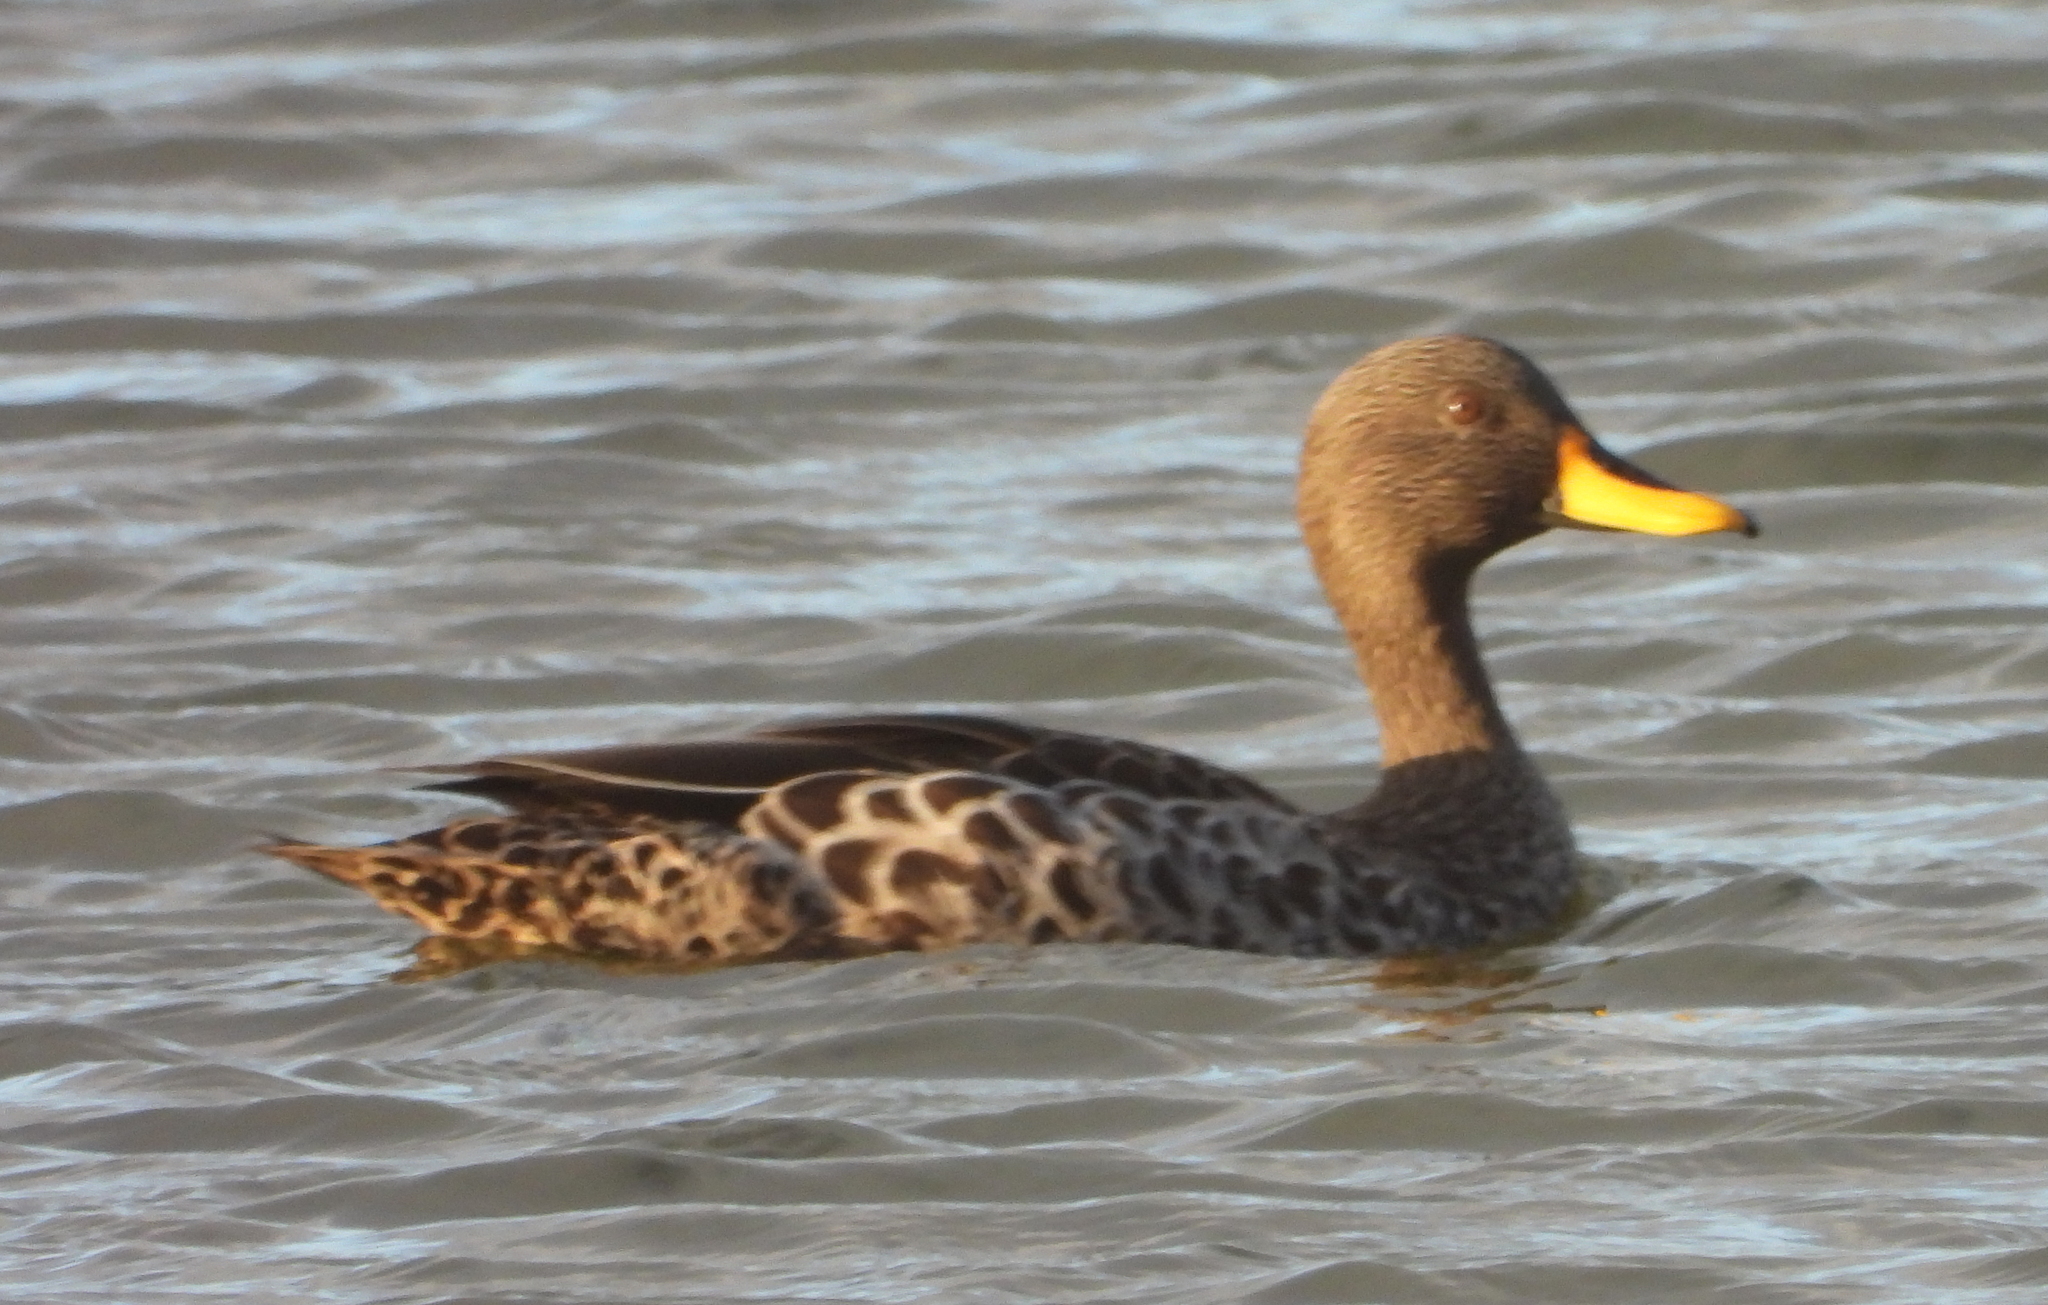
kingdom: Animalia
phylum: Chordata
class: Aves
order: Anseriformes
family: Anatidae
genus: Anas
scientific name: Anas undulata
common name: Yellow-billed duck
